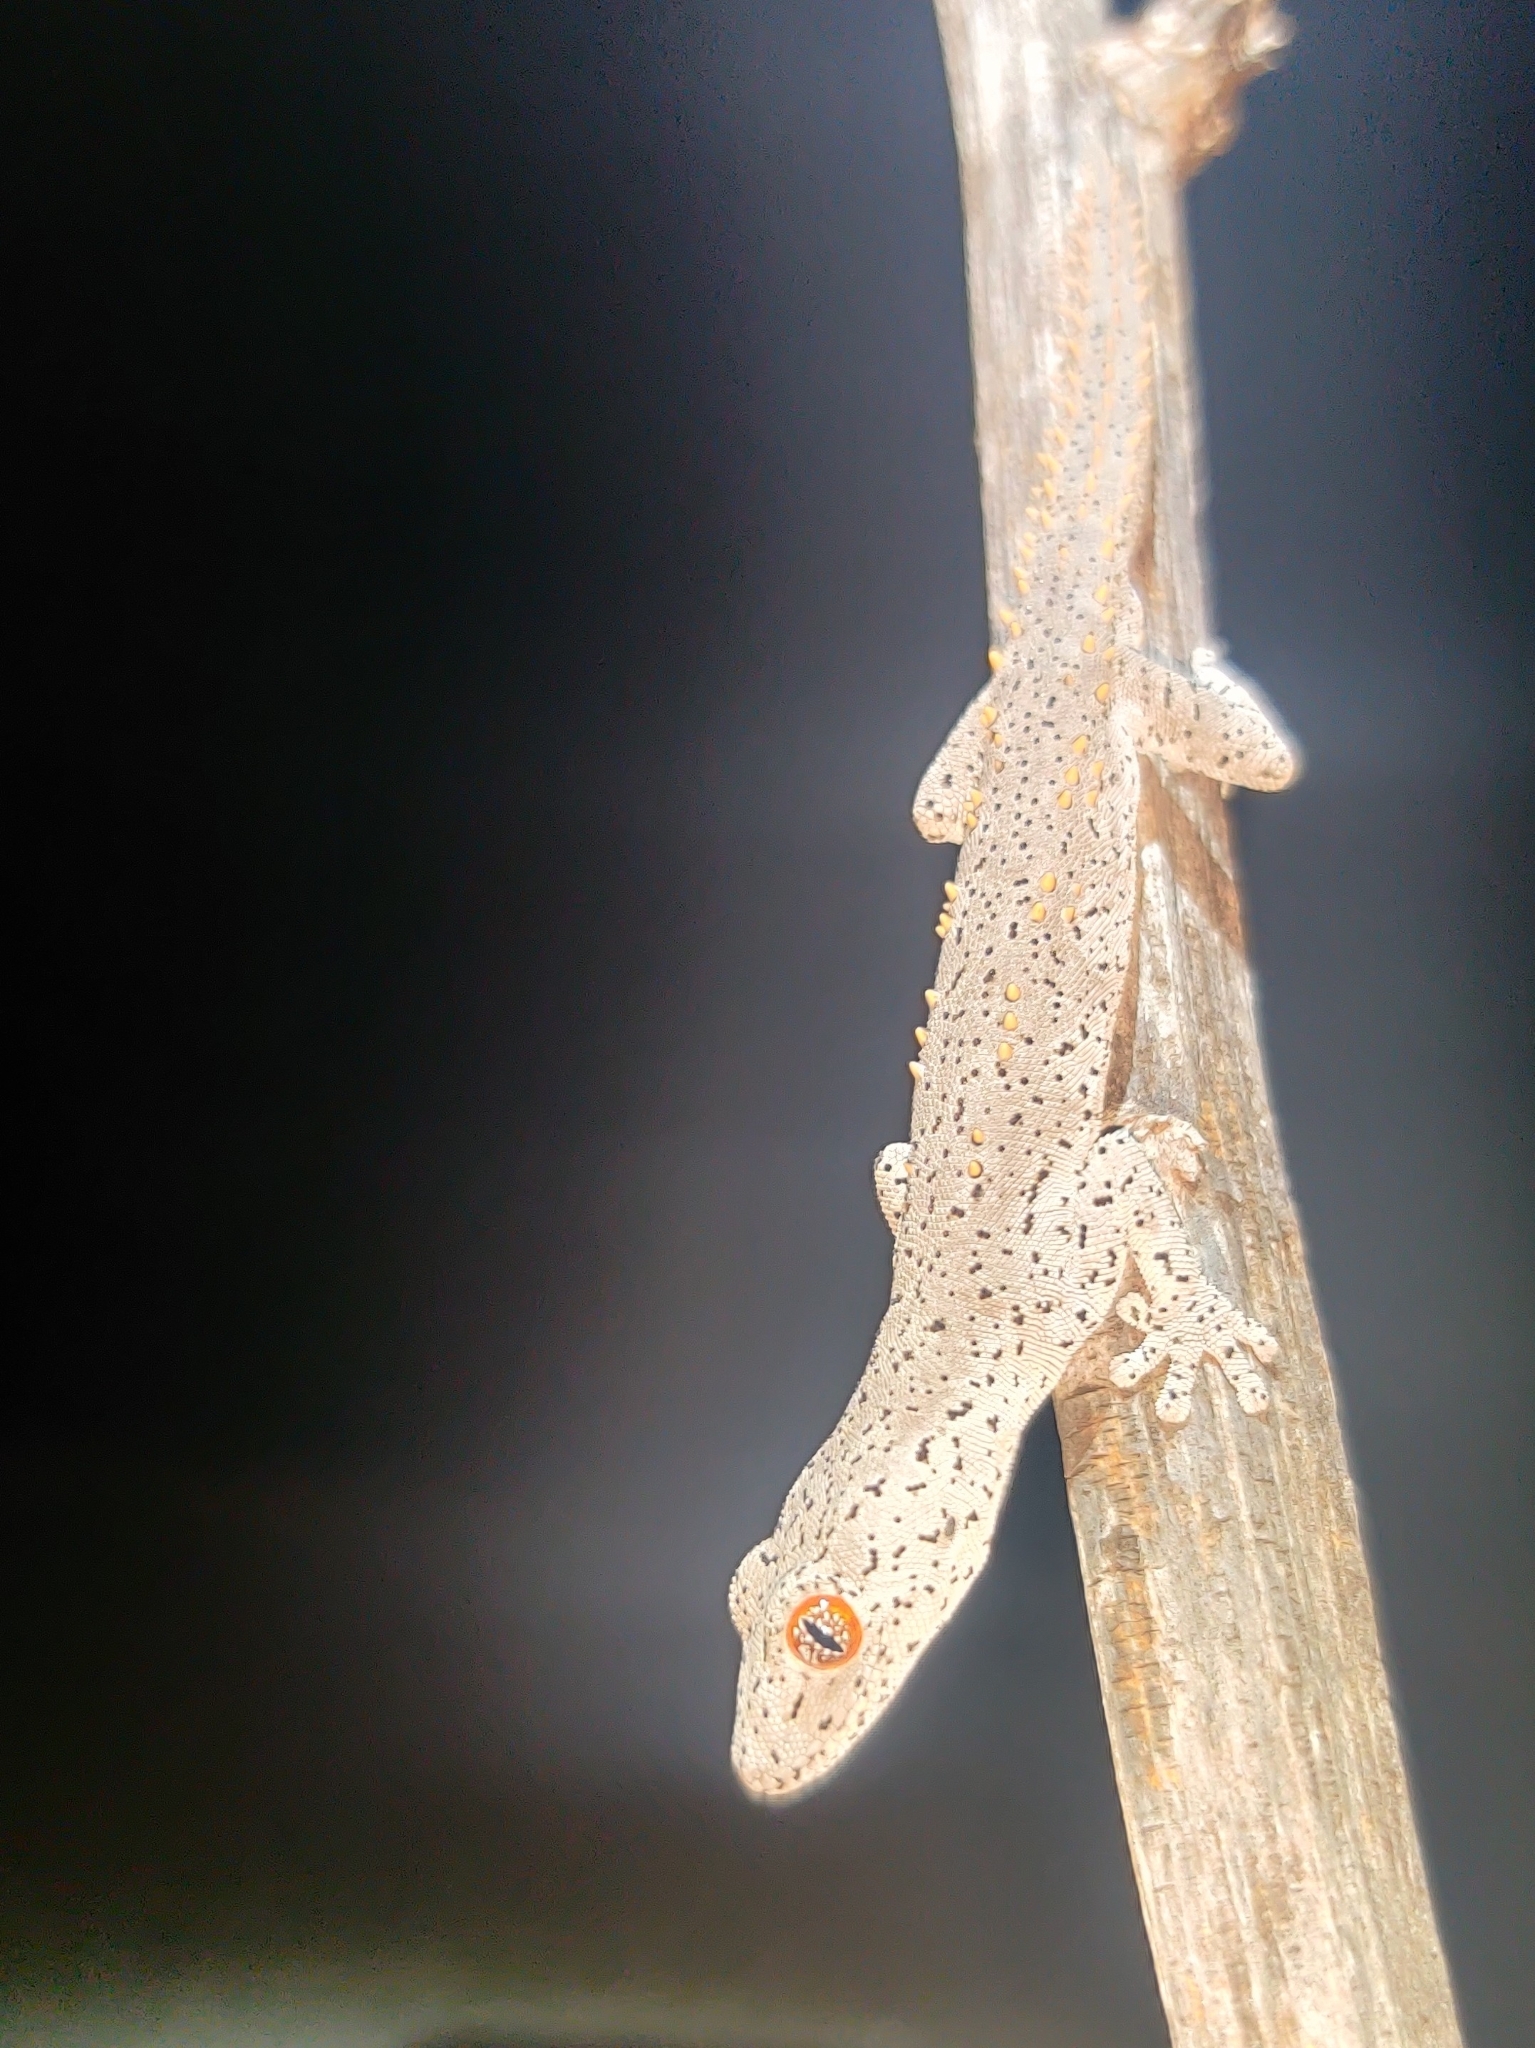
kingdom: Animalia
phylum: Chordata
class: Squamata
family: Diplodactylidae
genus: Strophurus
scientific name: Strophurus williamsi
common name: Eastern spiny-tailed gecko
